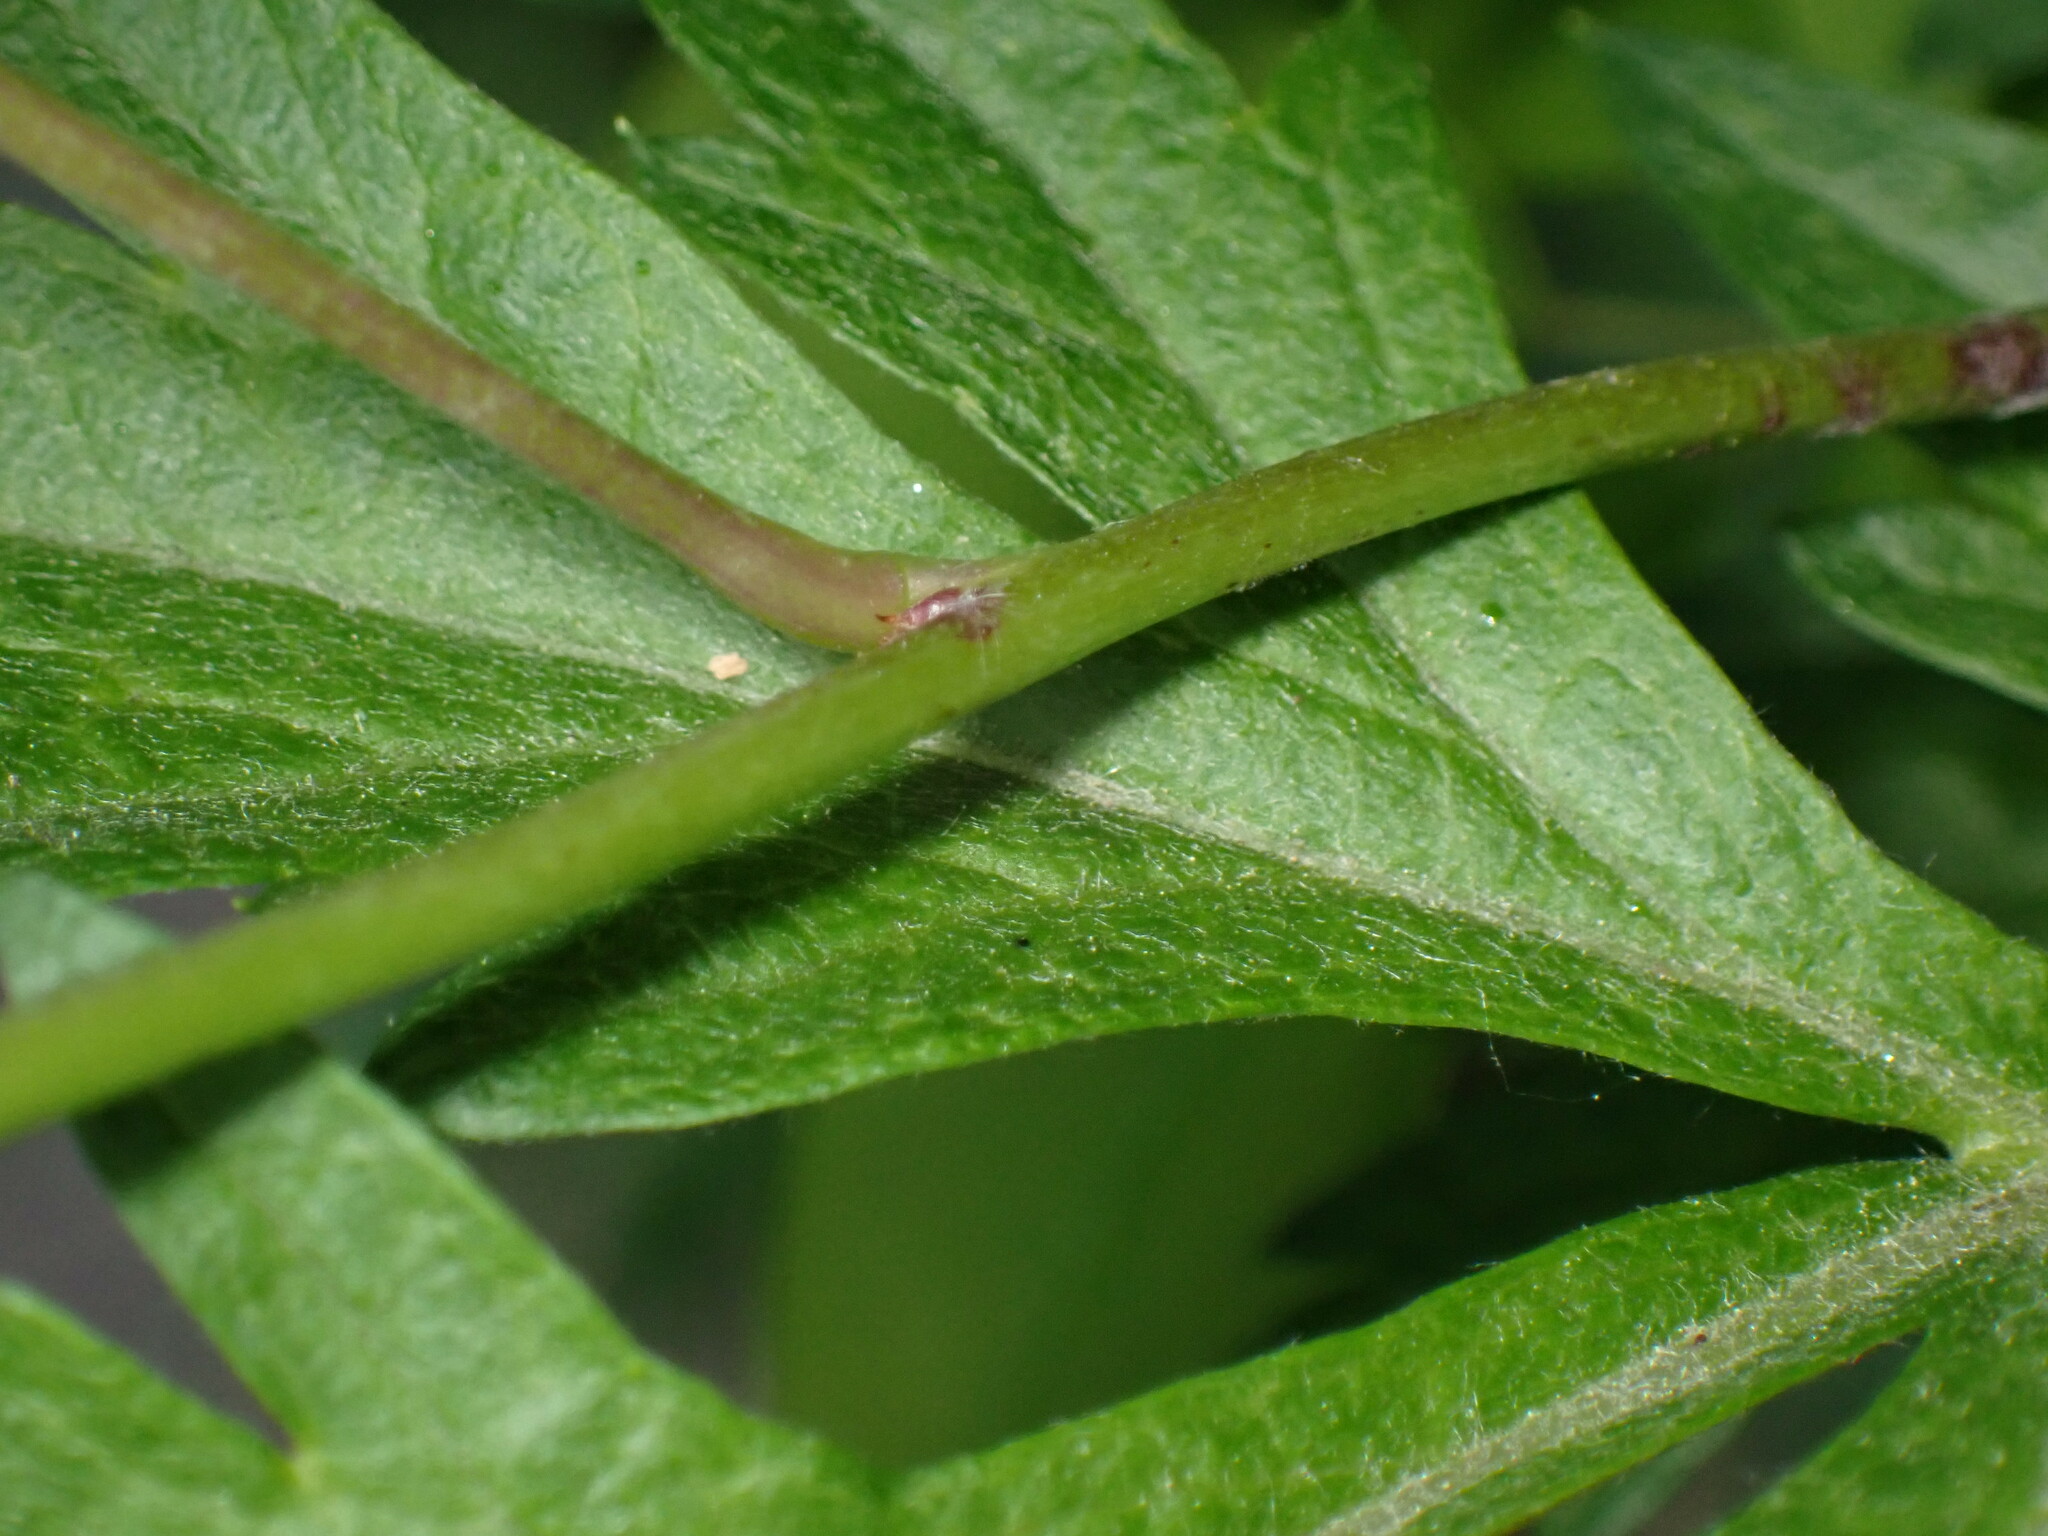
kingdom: Plantae
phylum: Tracheophyta
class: Magnoliopsida
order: Ranunculales
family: Lardizabalaceae
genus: Akebia
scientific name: Akebia quinata
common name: Five-leaf akebia
